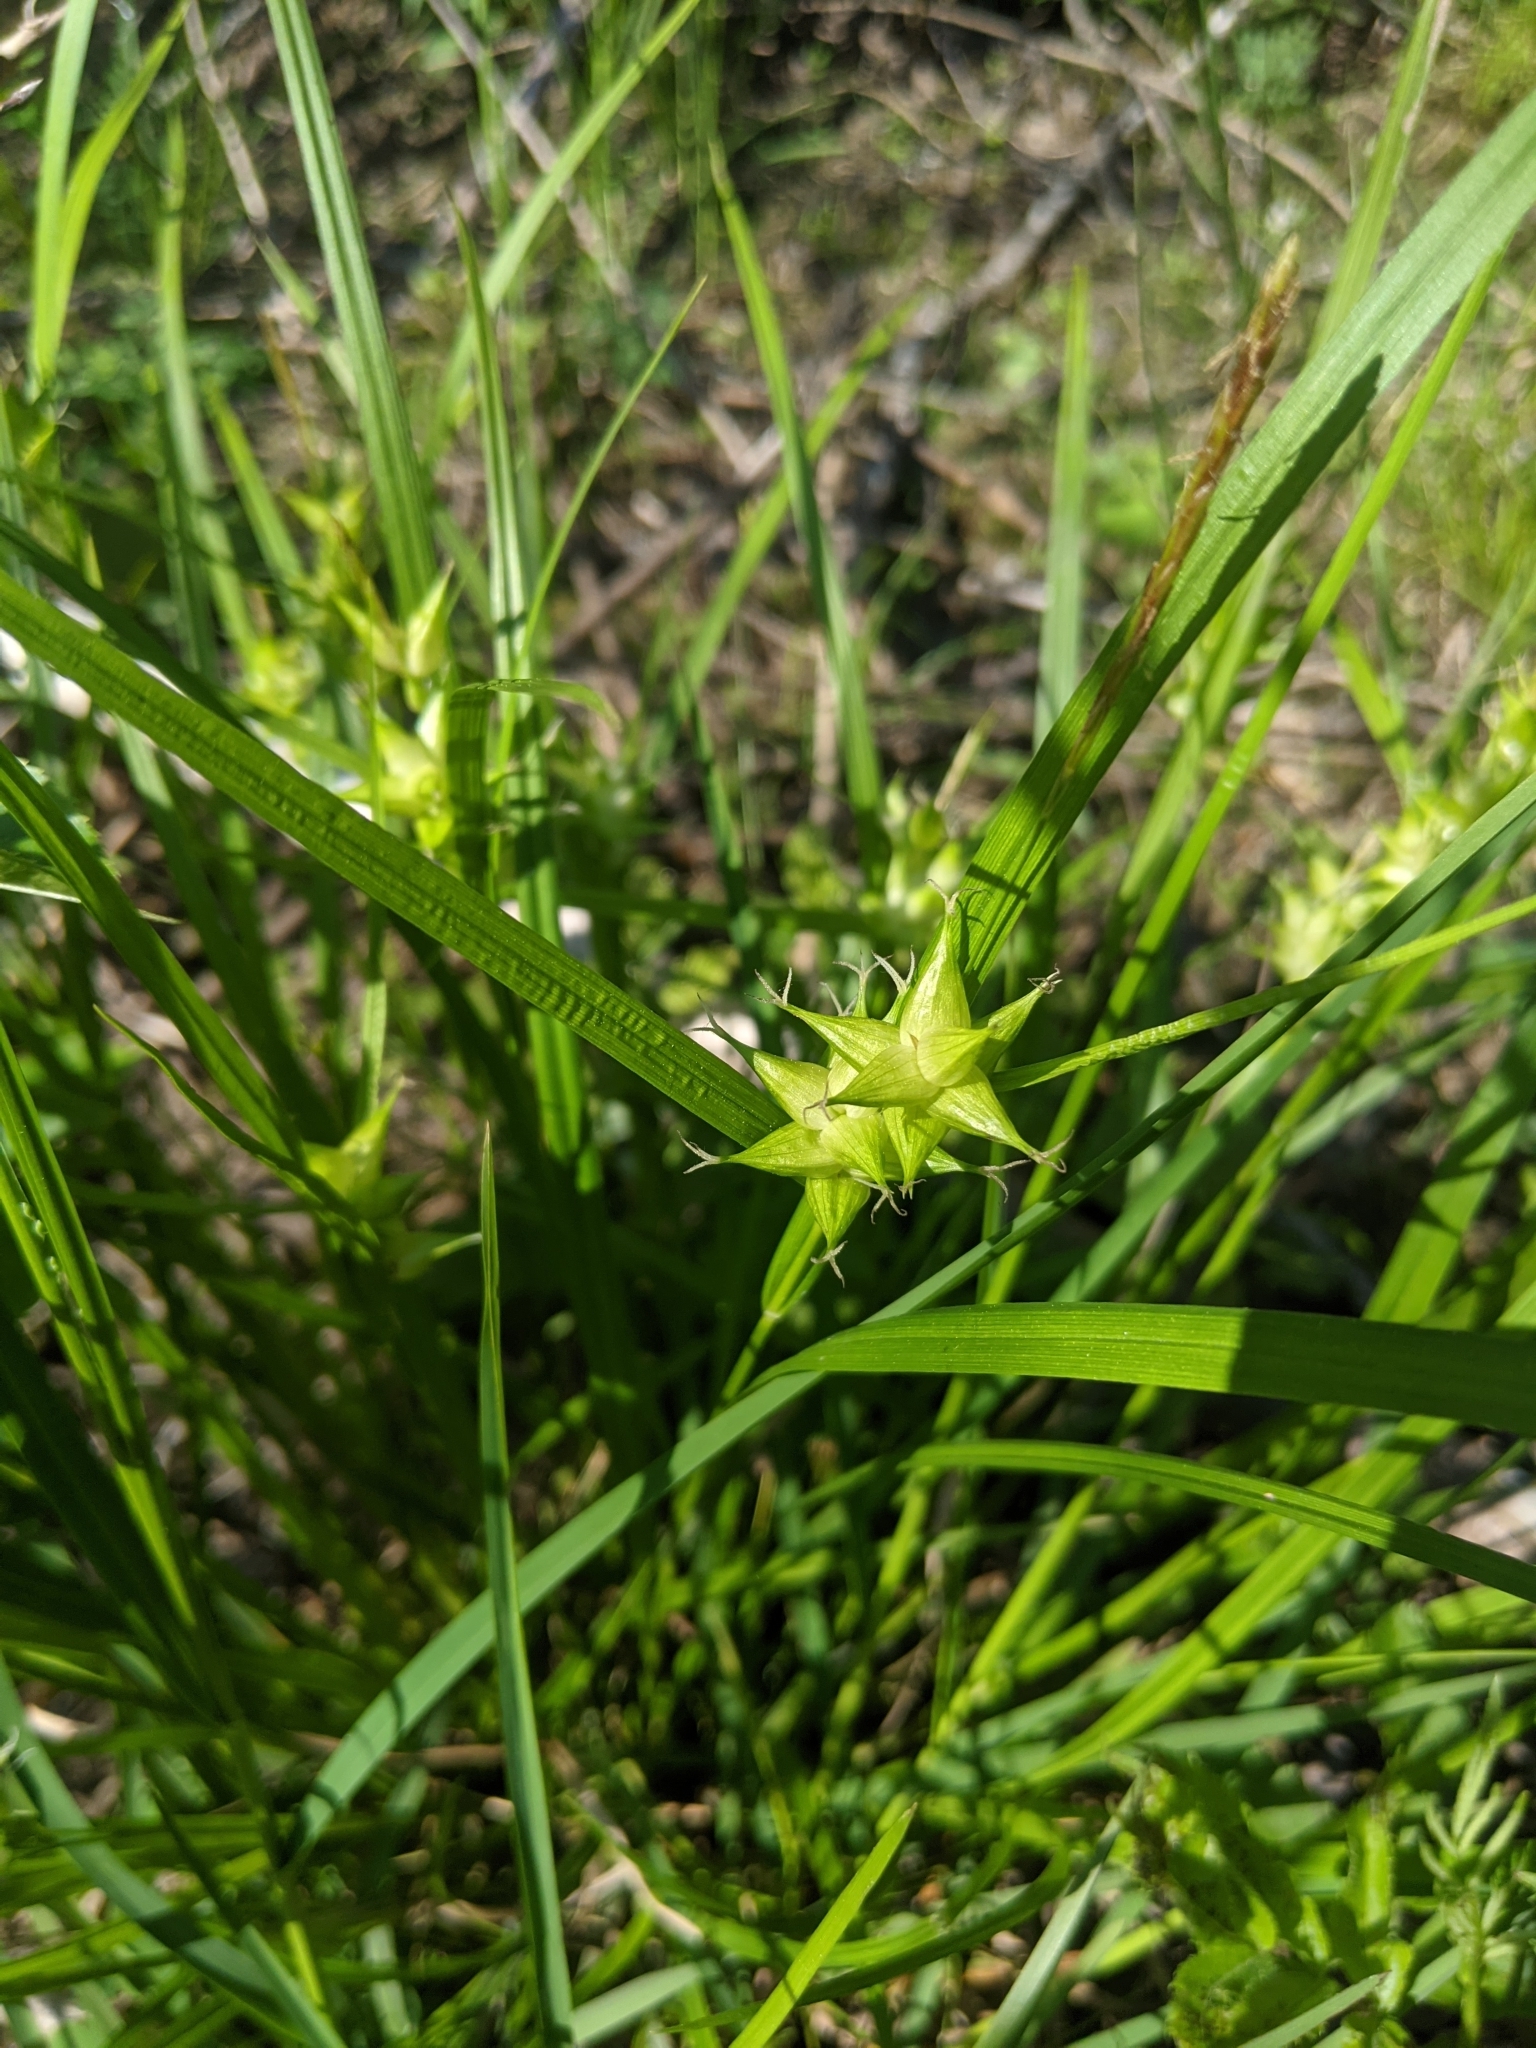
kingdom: Plantae
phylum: Tracheophyta
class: Liliopsida
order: Poales
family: Cyperaceae
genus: Carex
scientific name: Carex intumescens
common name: Greater bladder sedge
